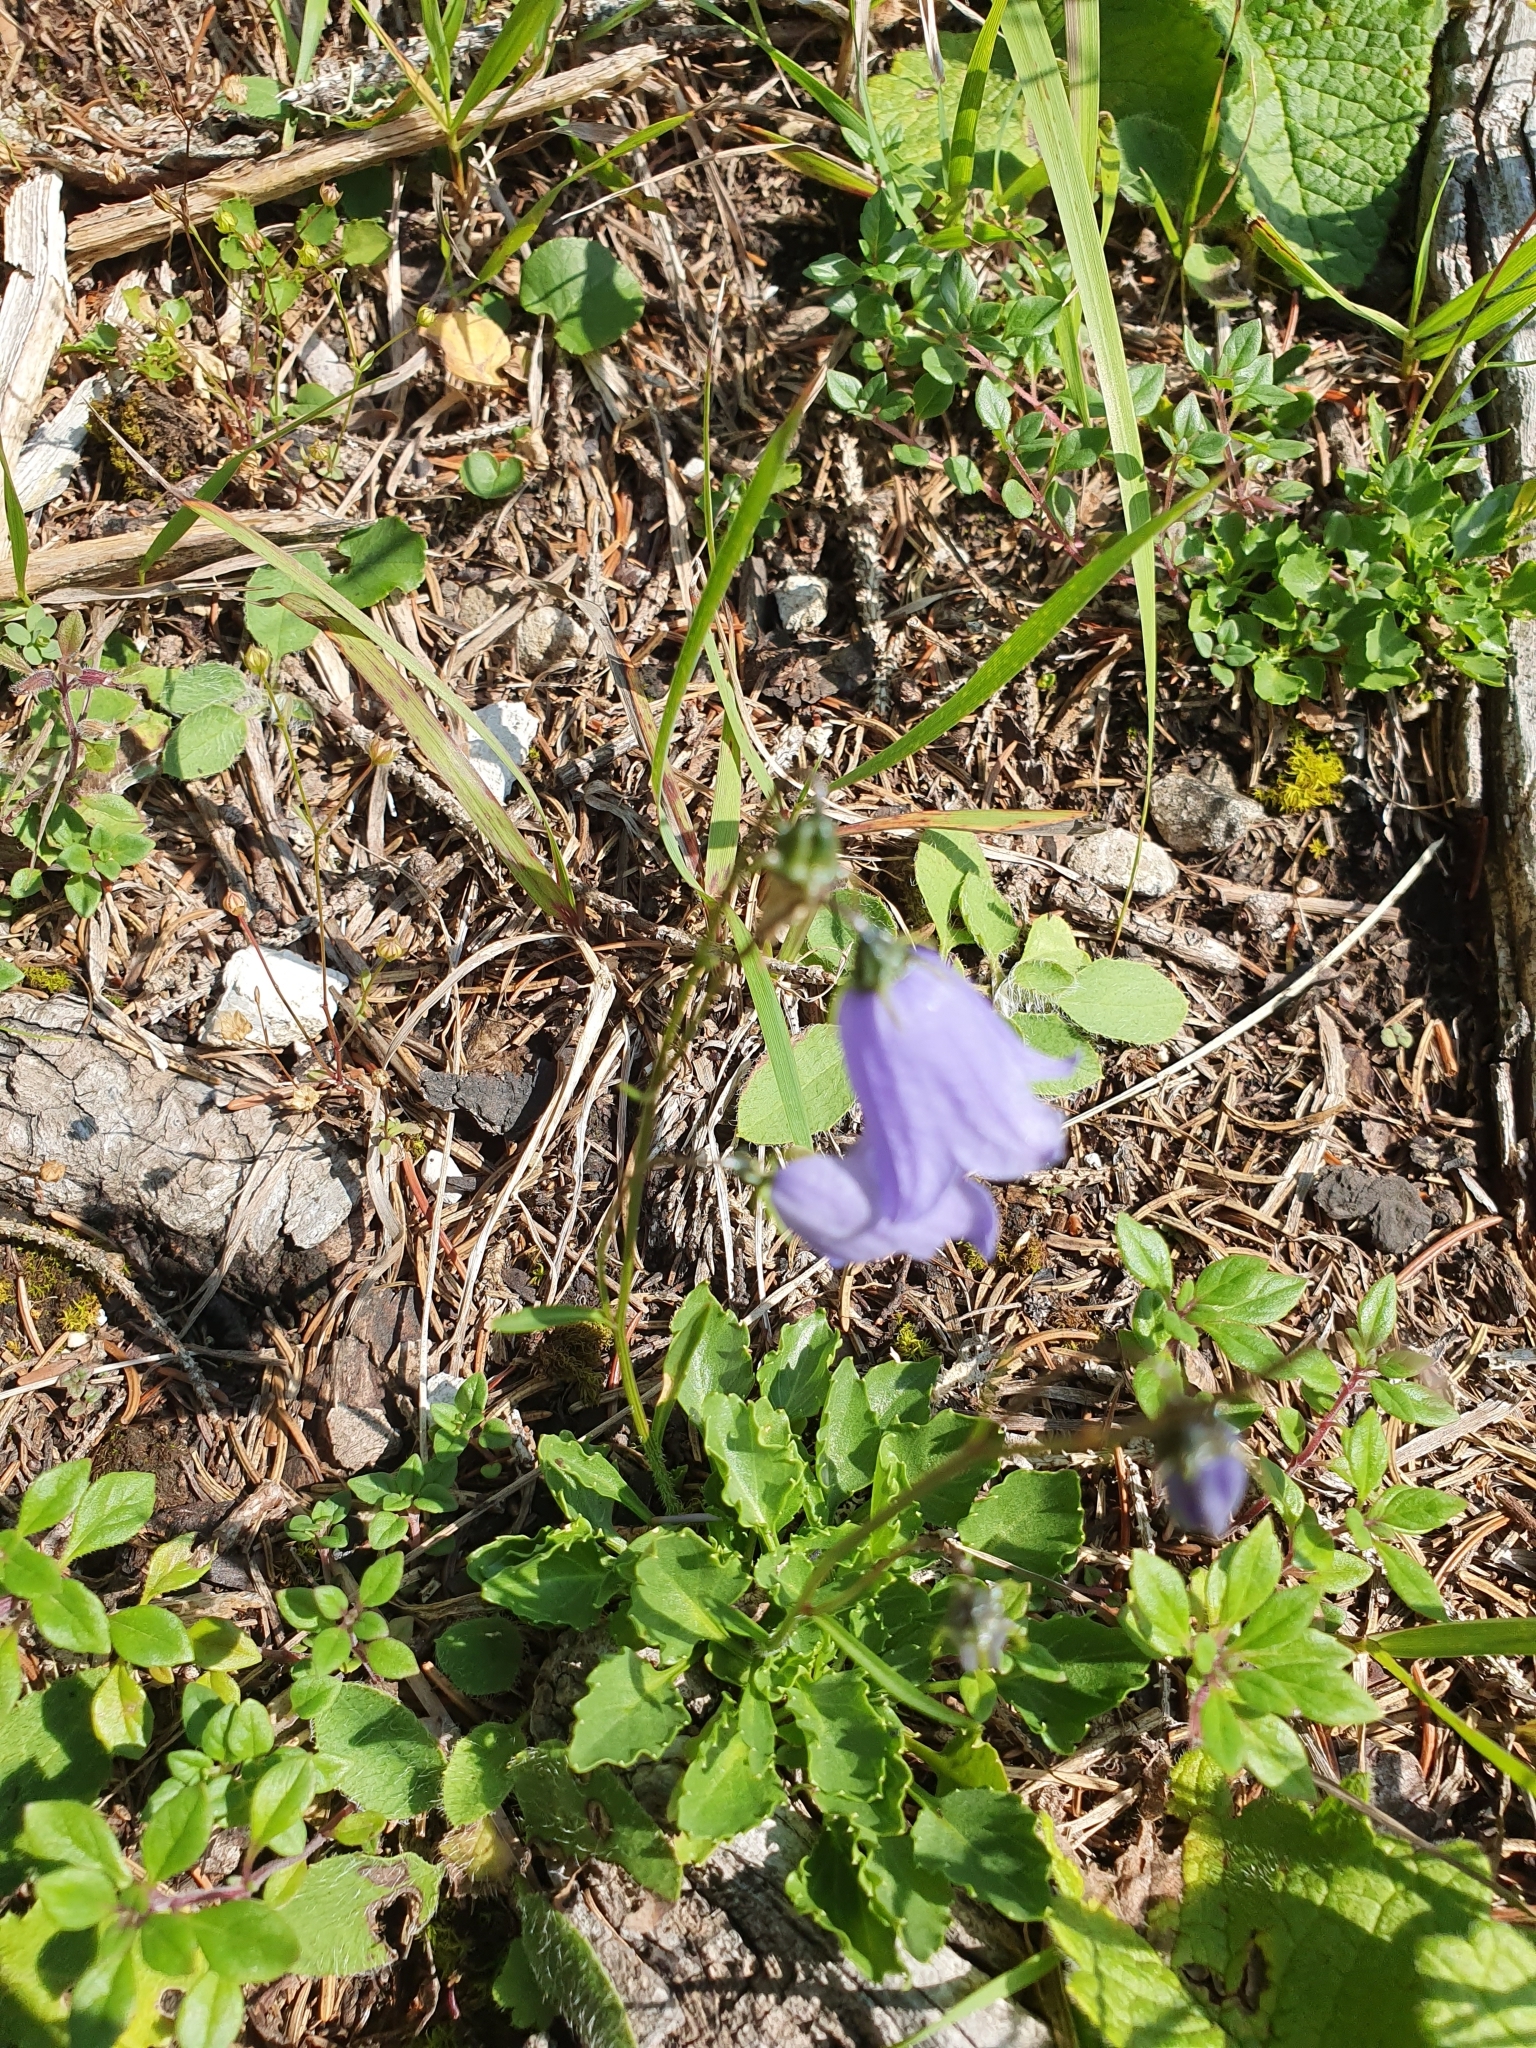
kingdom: Plantae
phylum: Tracheophyta
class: Magnoliopsida
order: Asterales
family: Campanulaceae
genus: Campanula
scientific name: Campanula cochleariifolia
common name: Fairies'-thimbles
